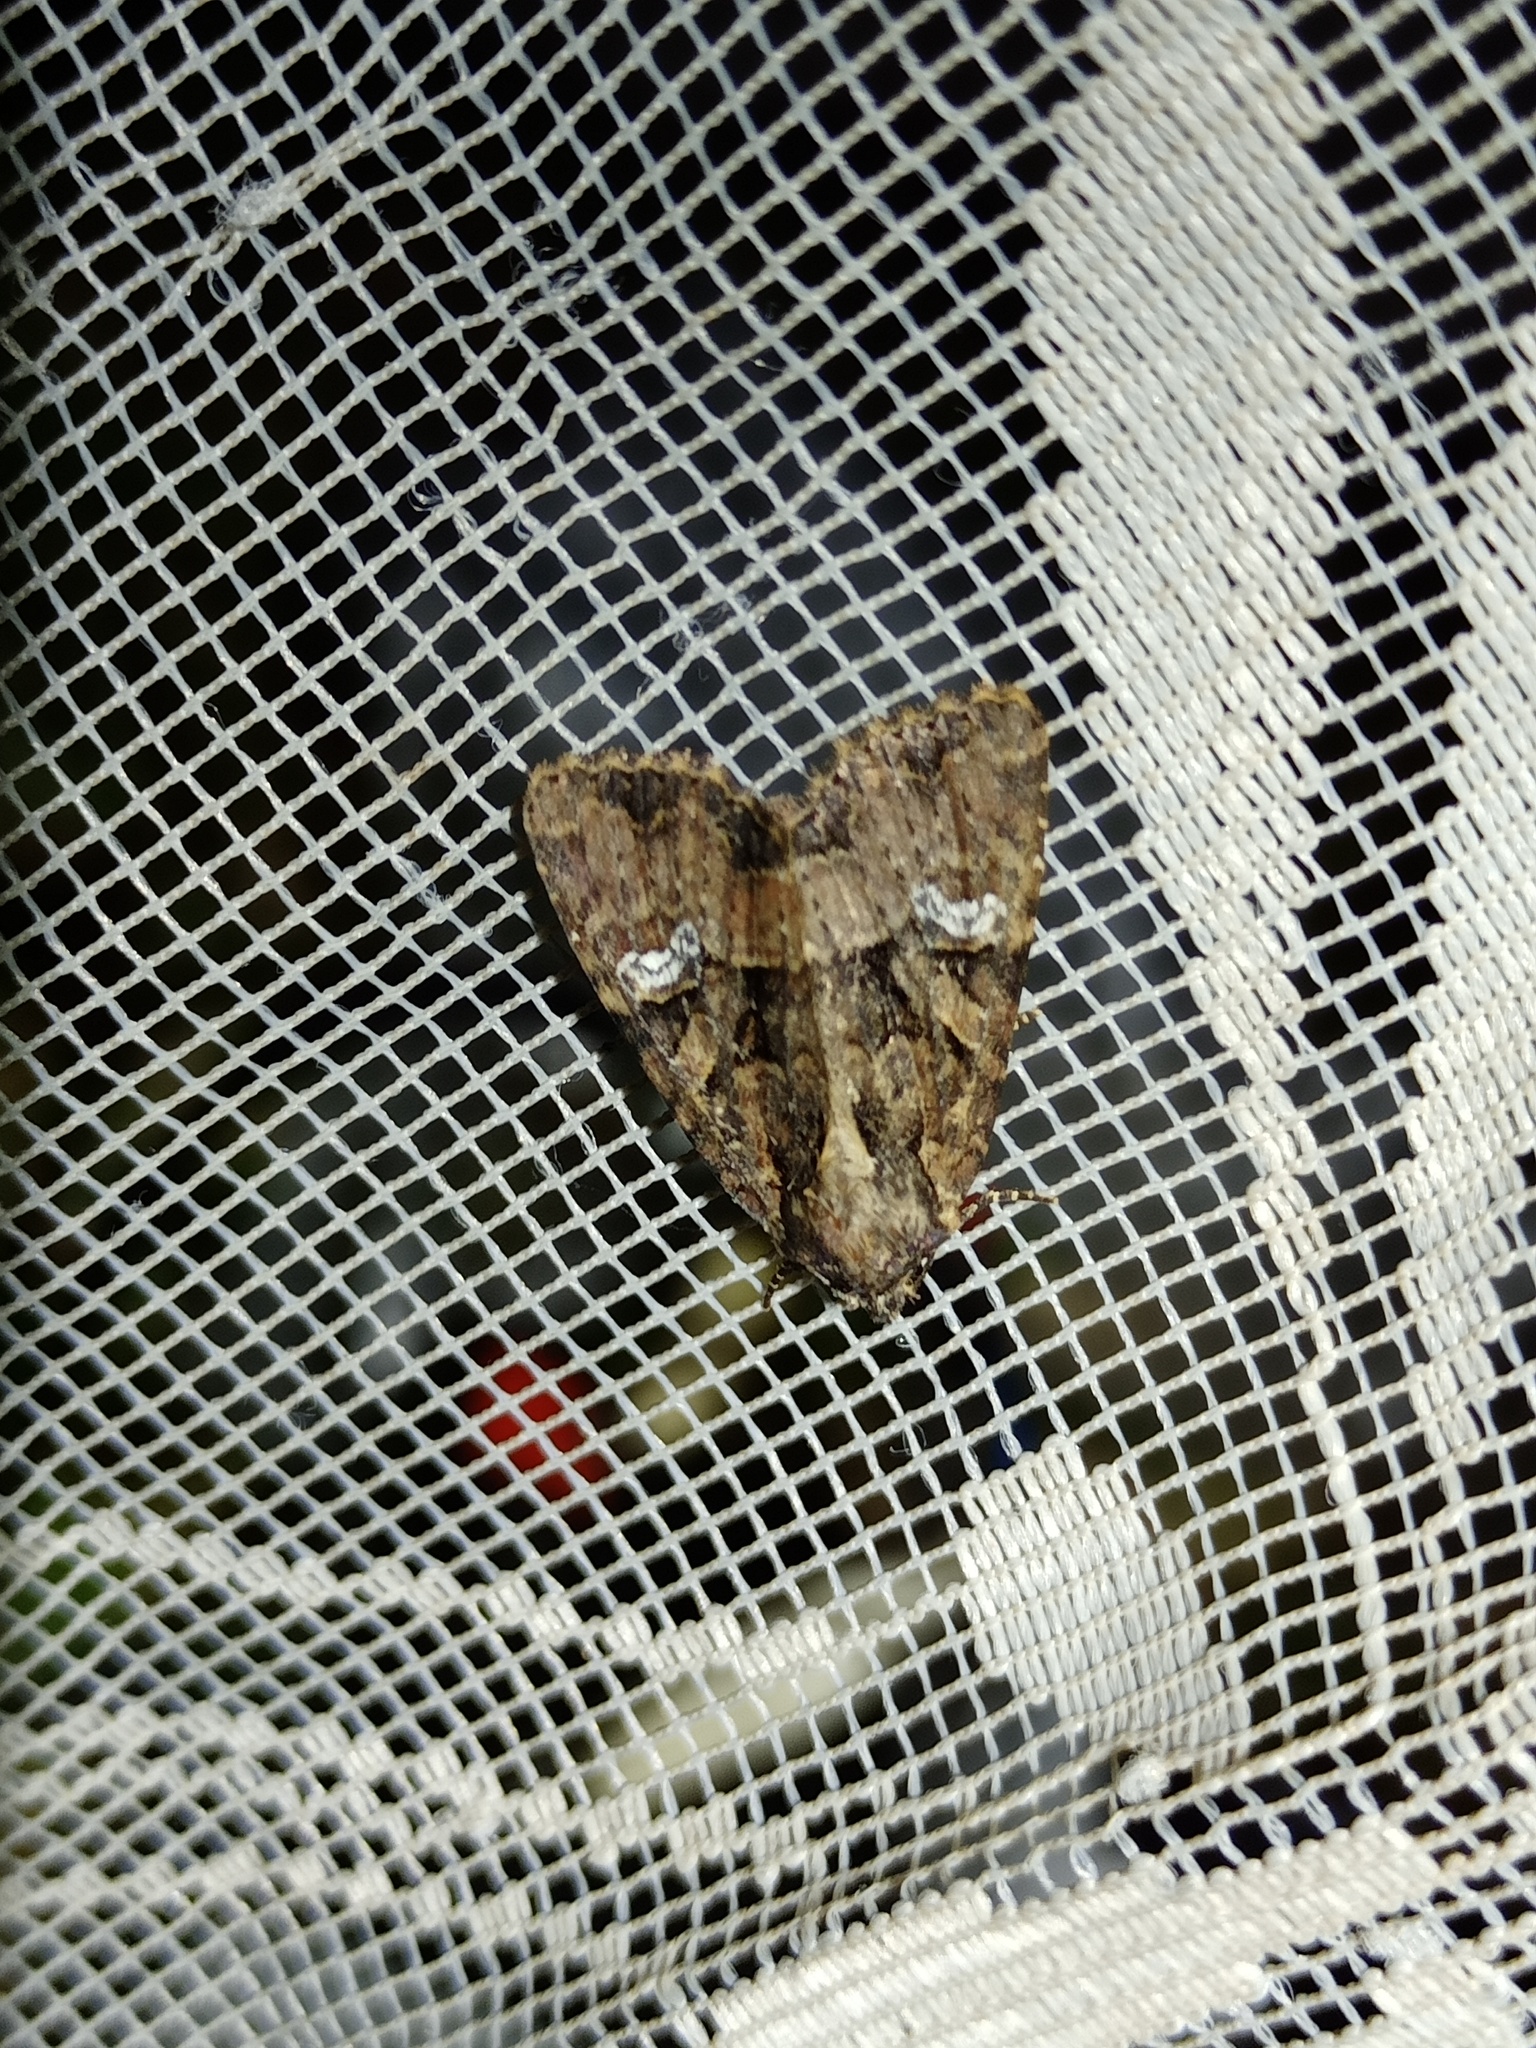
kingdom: Animalia
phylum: Arthropoda
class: Insecta
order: Lepidoptera
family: Noctuidae
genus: Mesapamea
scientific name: Mesapamea
